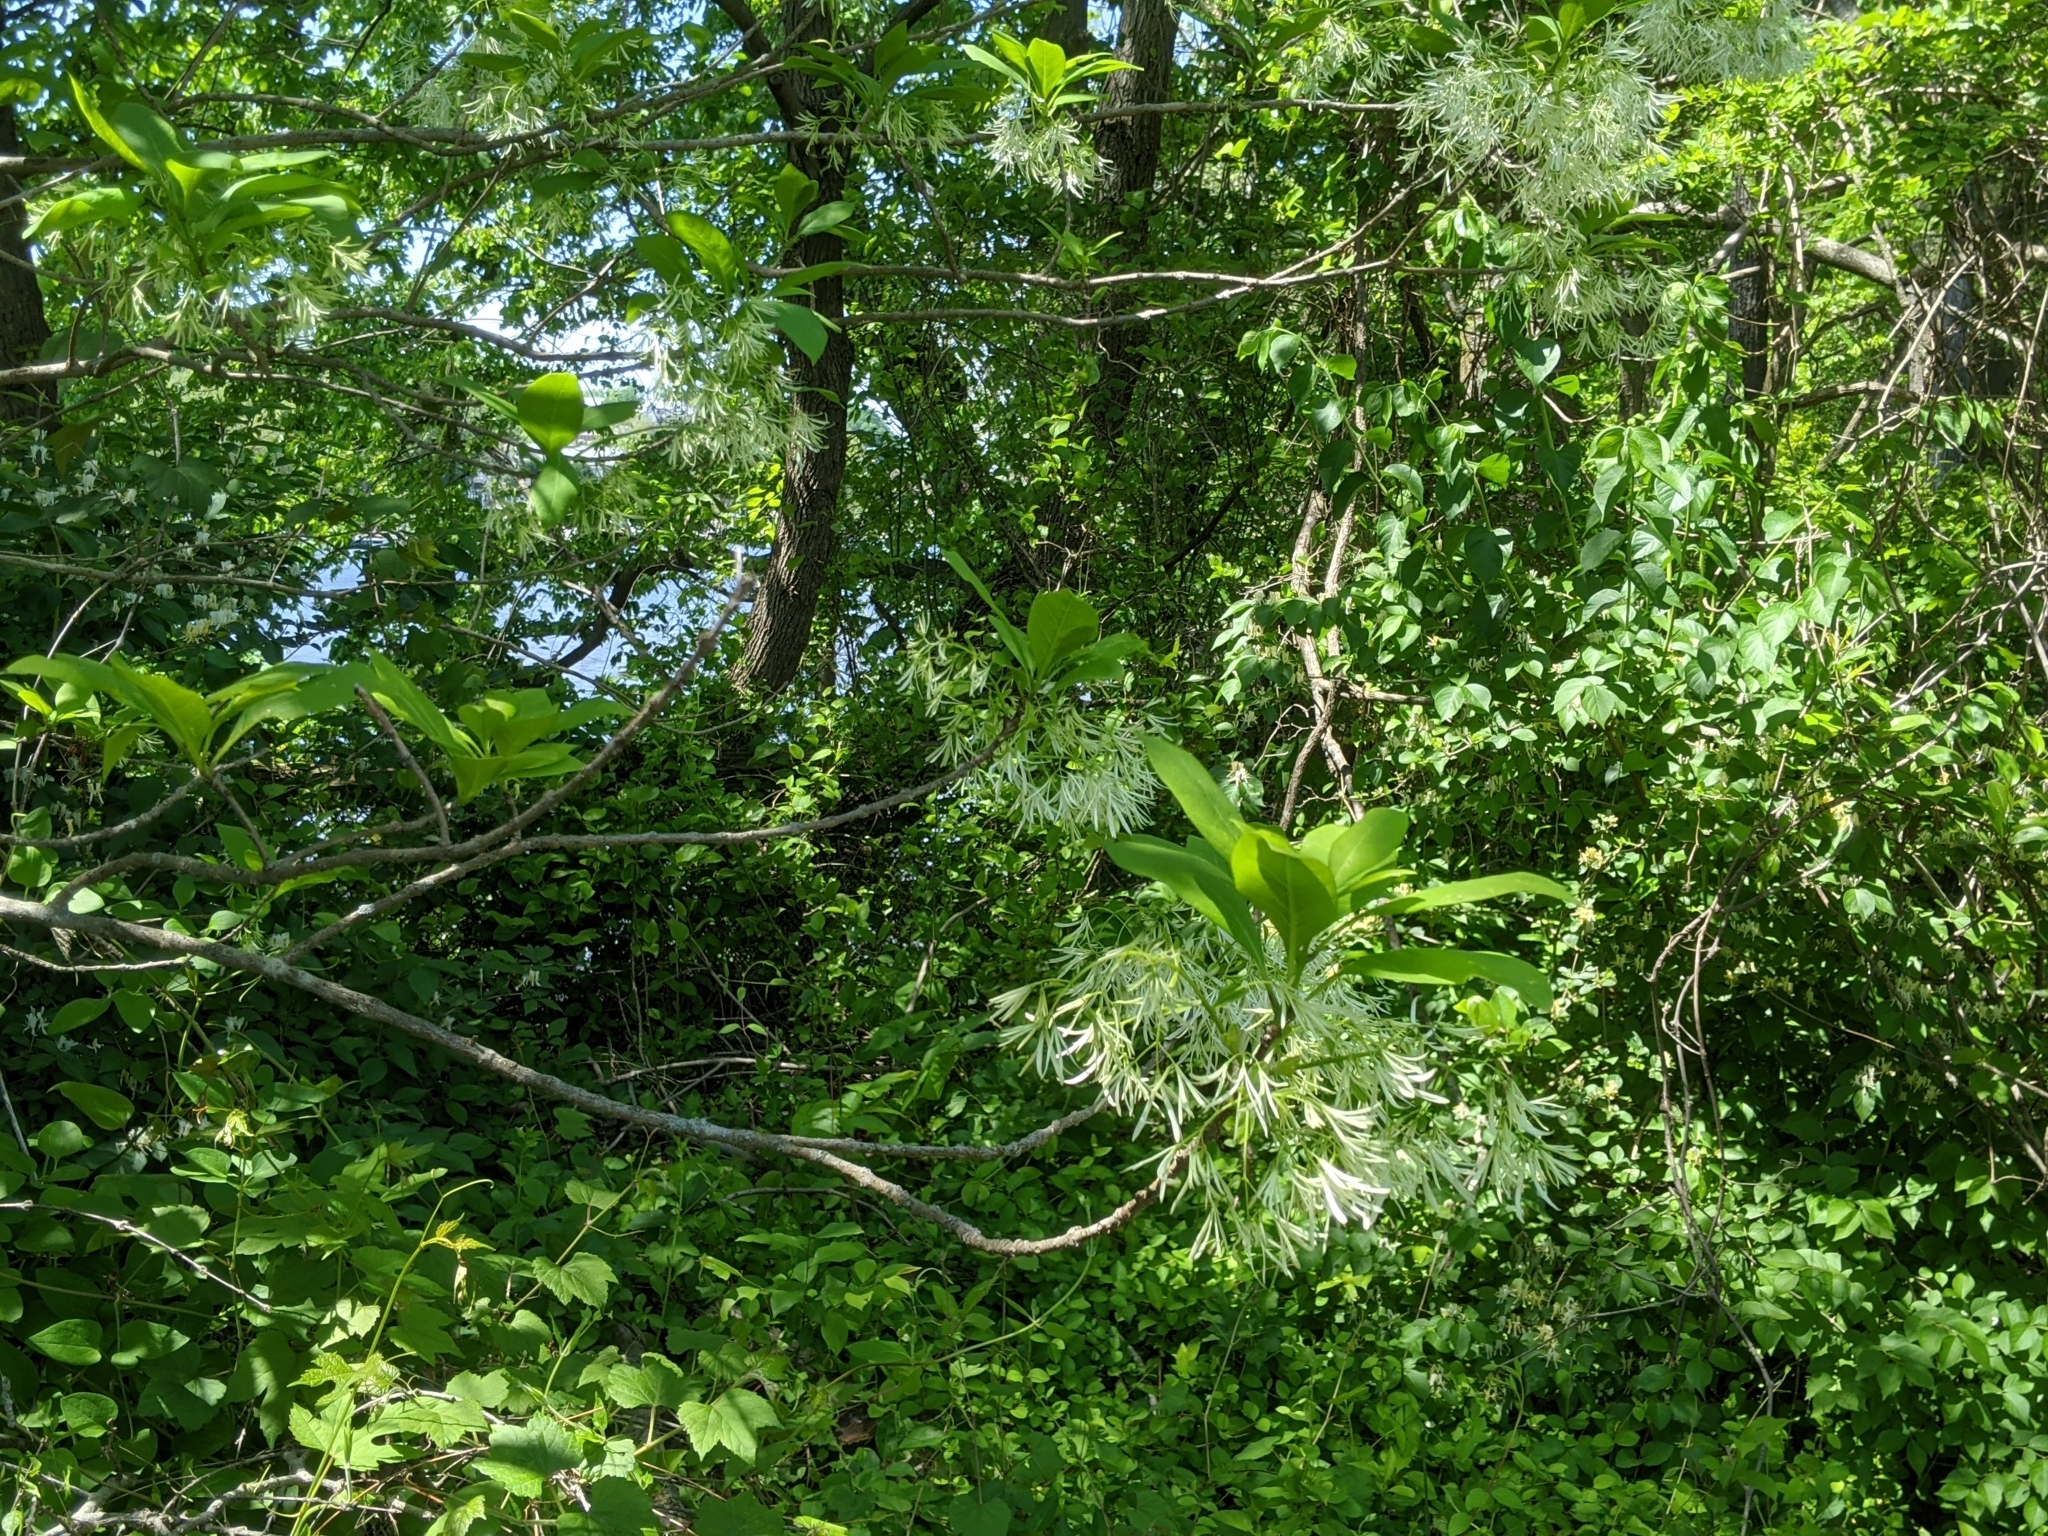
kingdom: Plantae
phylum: Tracheophyta
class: Magnoliopsida
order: Lamiales
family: Oleaceae
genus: Chionanthus
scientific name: Chionanthus virginicus
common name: American fringetree
